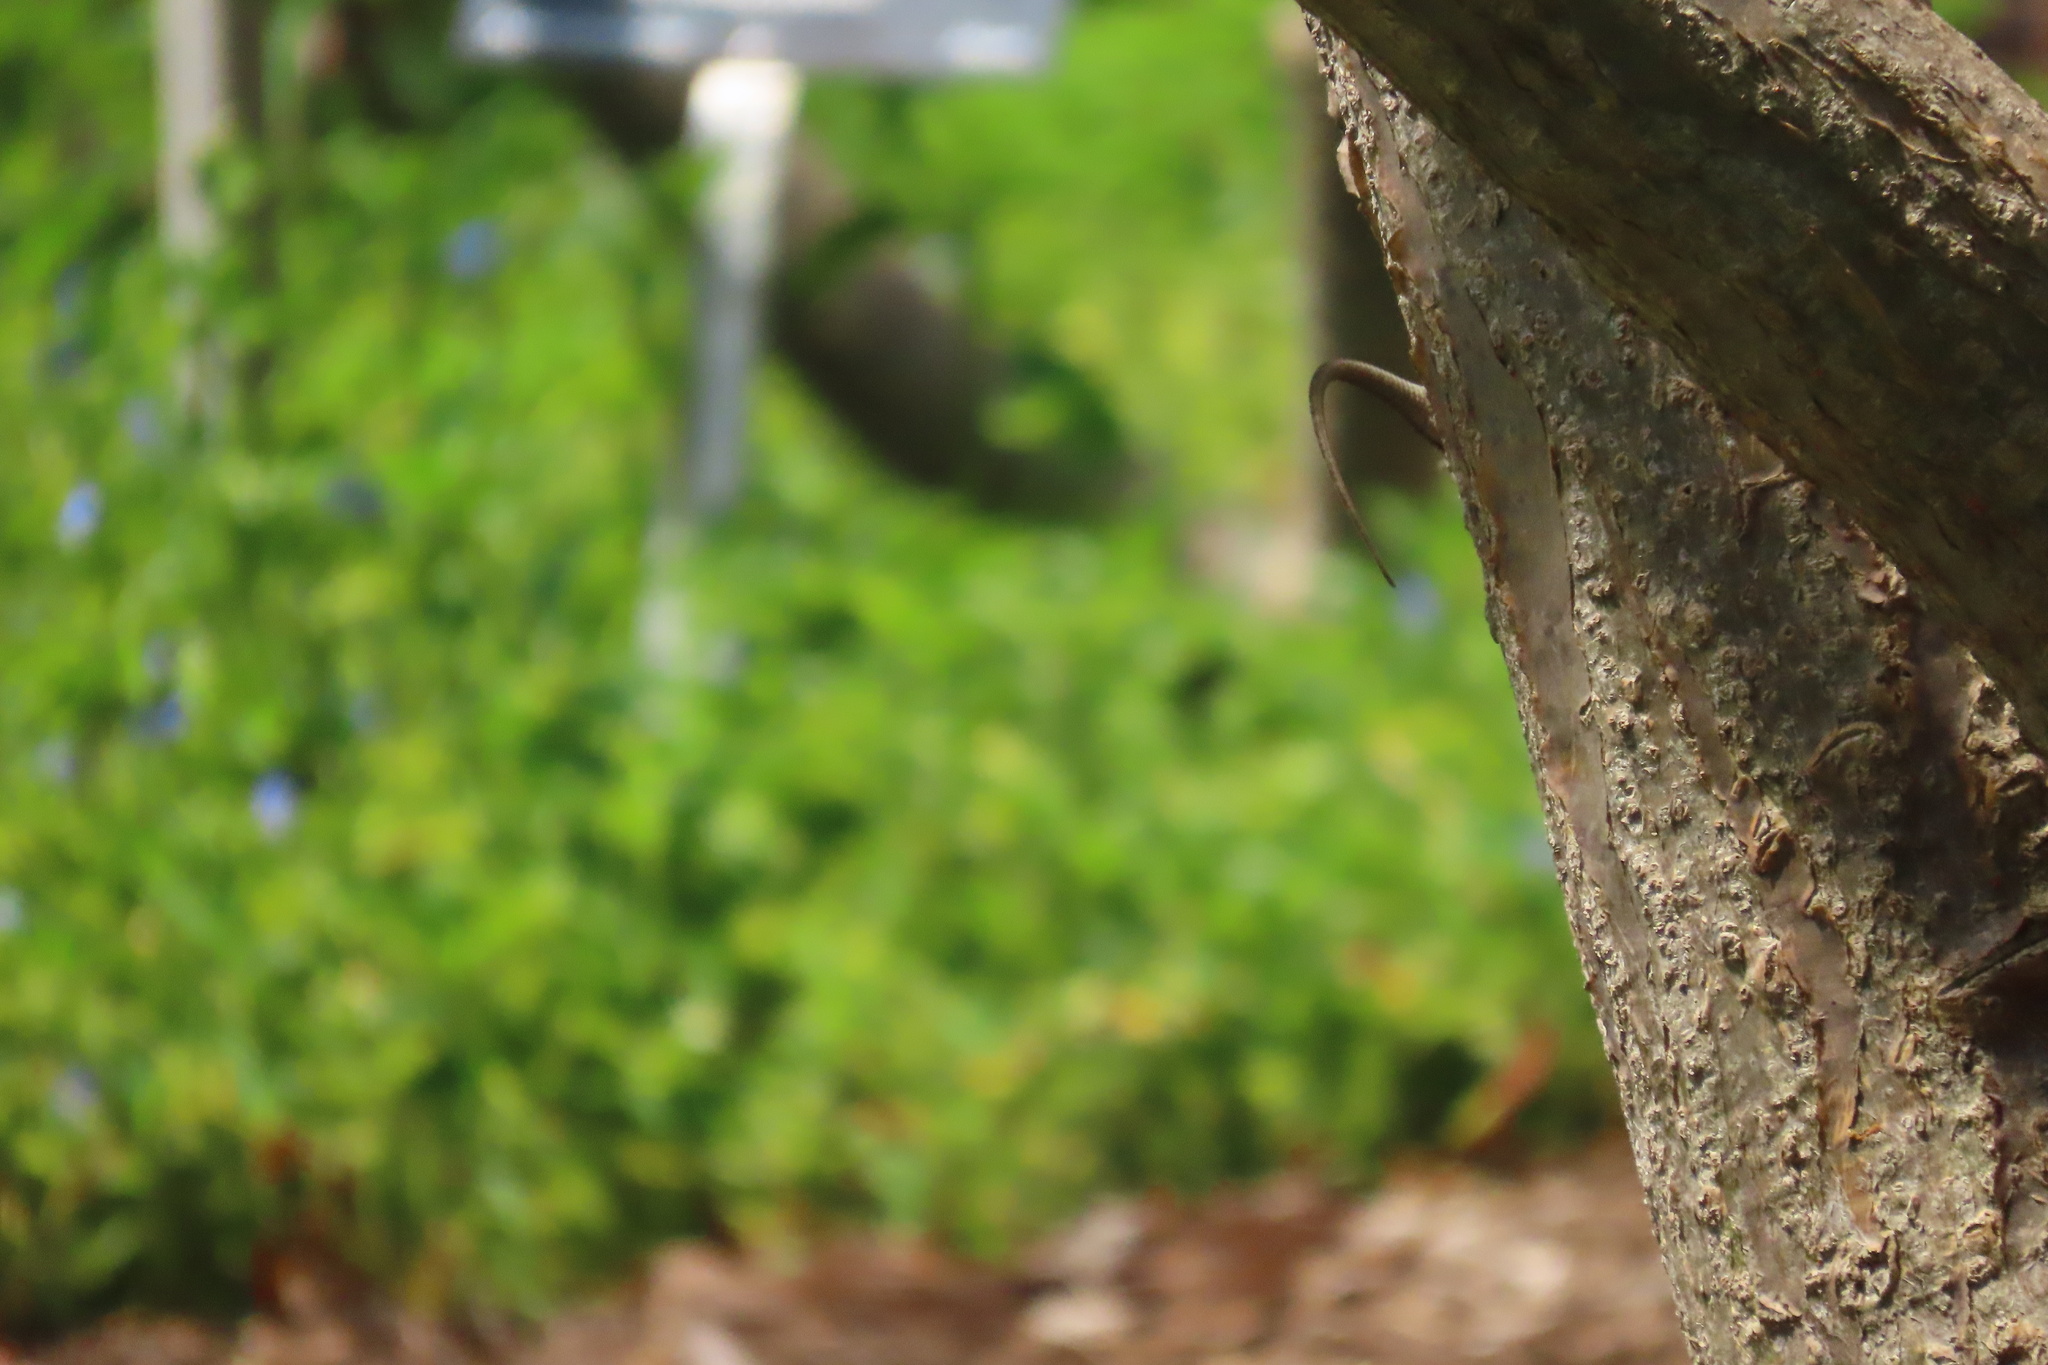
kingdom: Animalia
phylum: Chordata
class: Squamata
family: Phrynosomatidae
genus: Sceloporus
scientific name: Sceloporus occidentalis
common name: Western fence lizard
